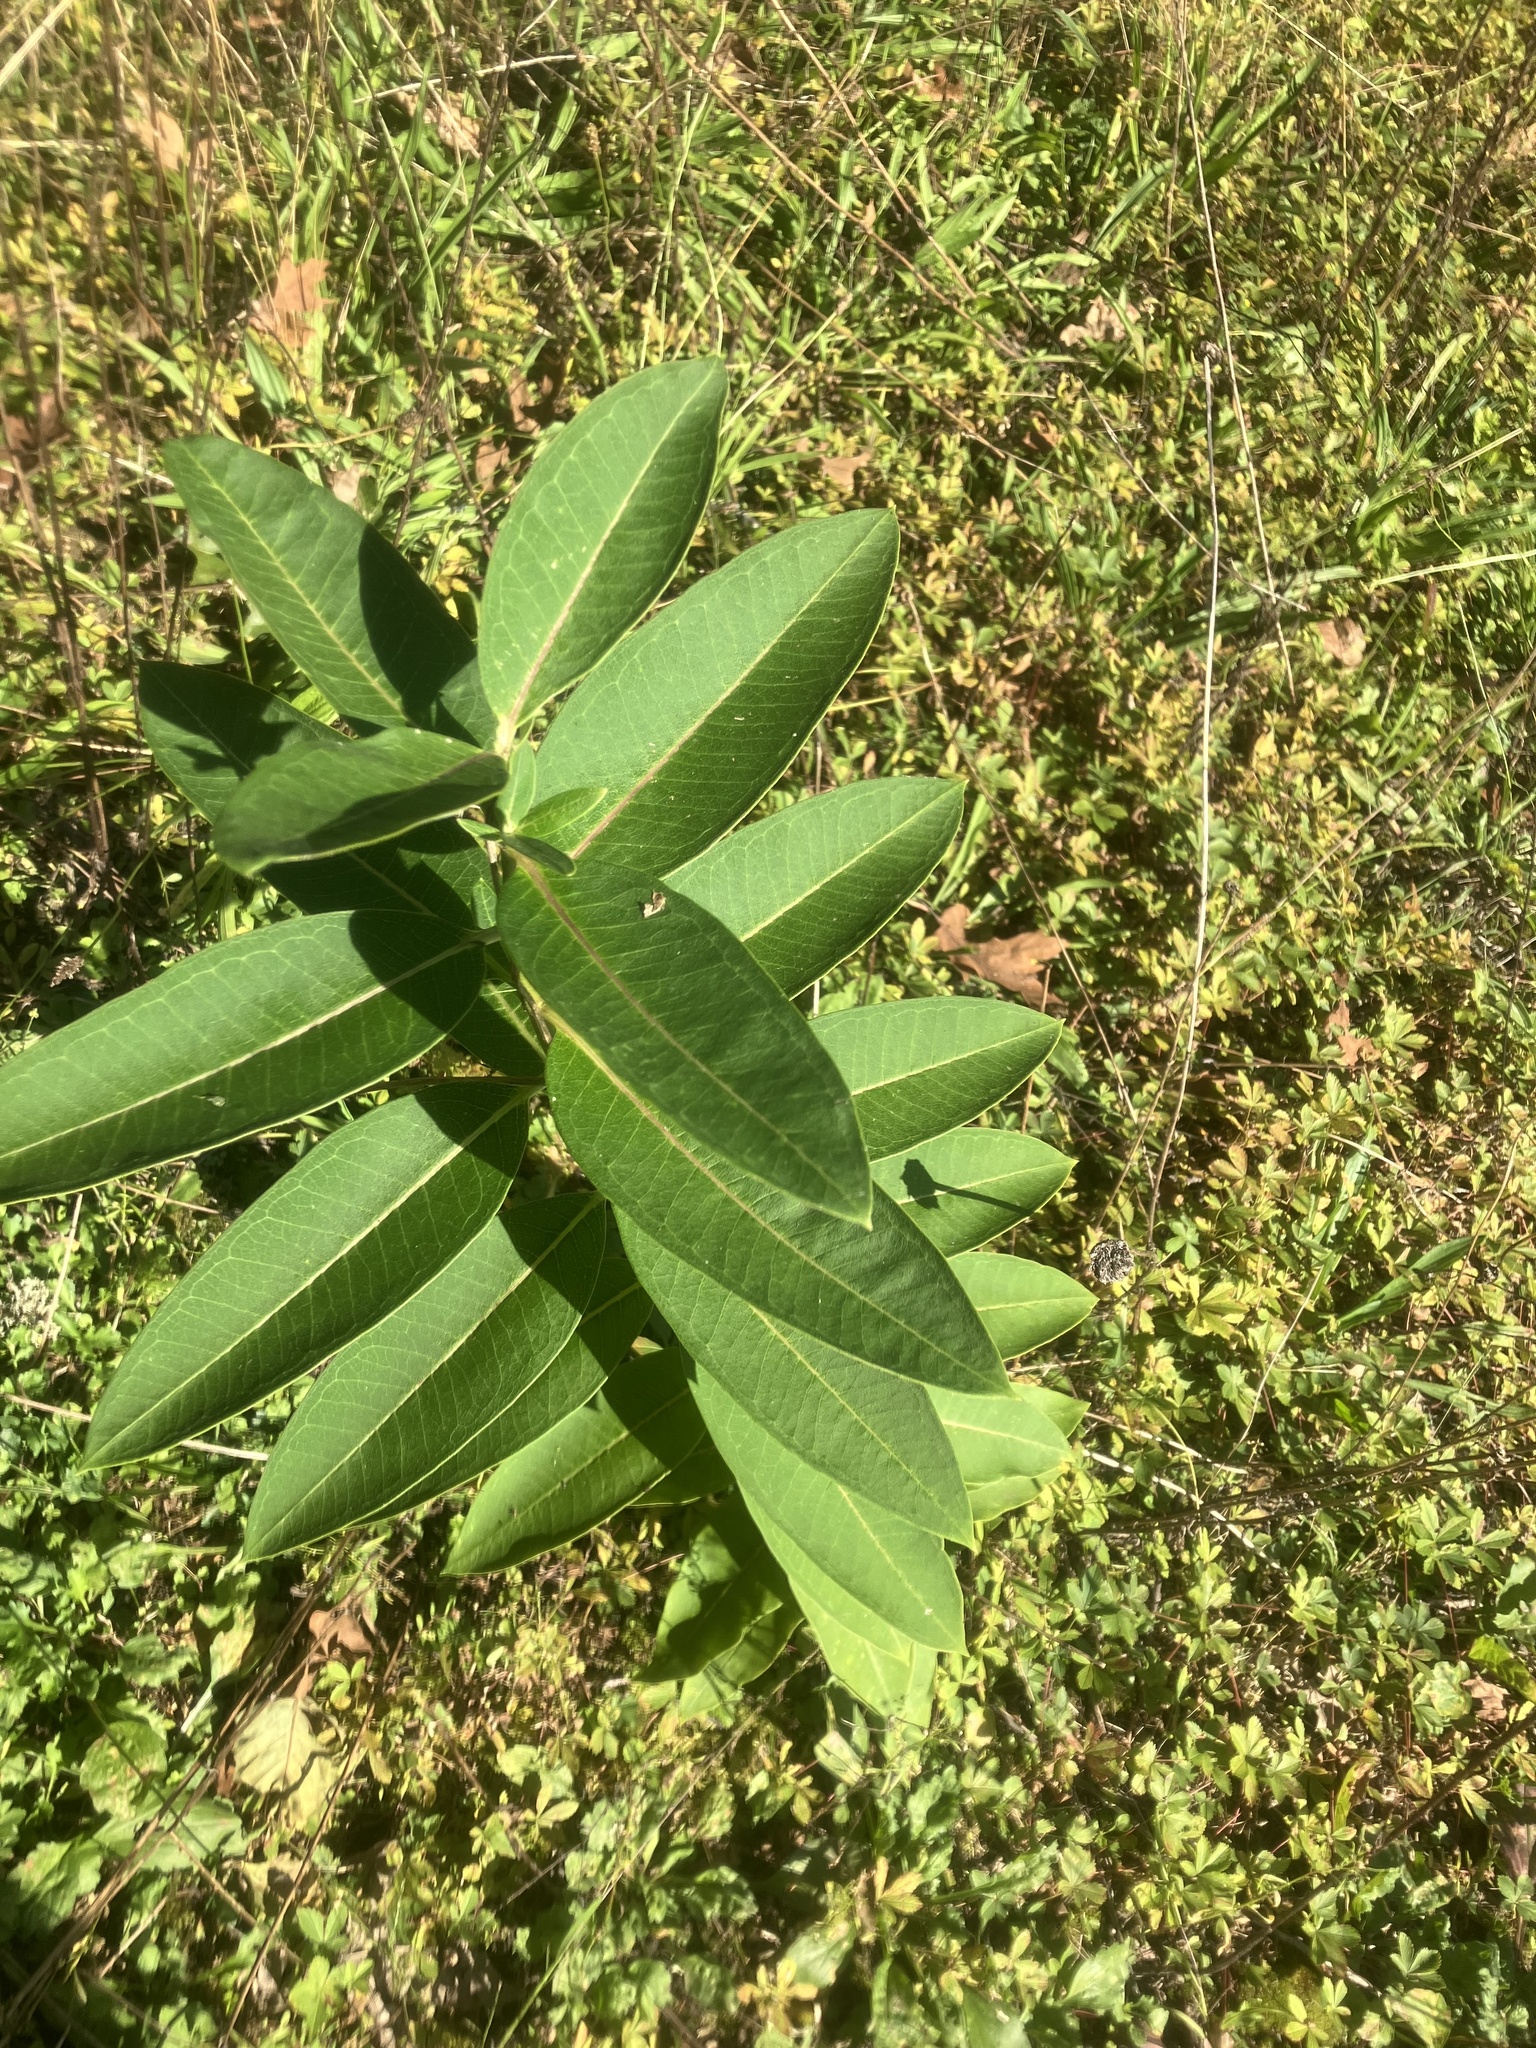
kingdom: Plantae
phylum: Tracheophyta
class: Magnoliopsida
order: Gentianales
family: Apocynaceae
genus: Asclepias
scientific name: Asclepias syriaca
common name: Common milkweed
